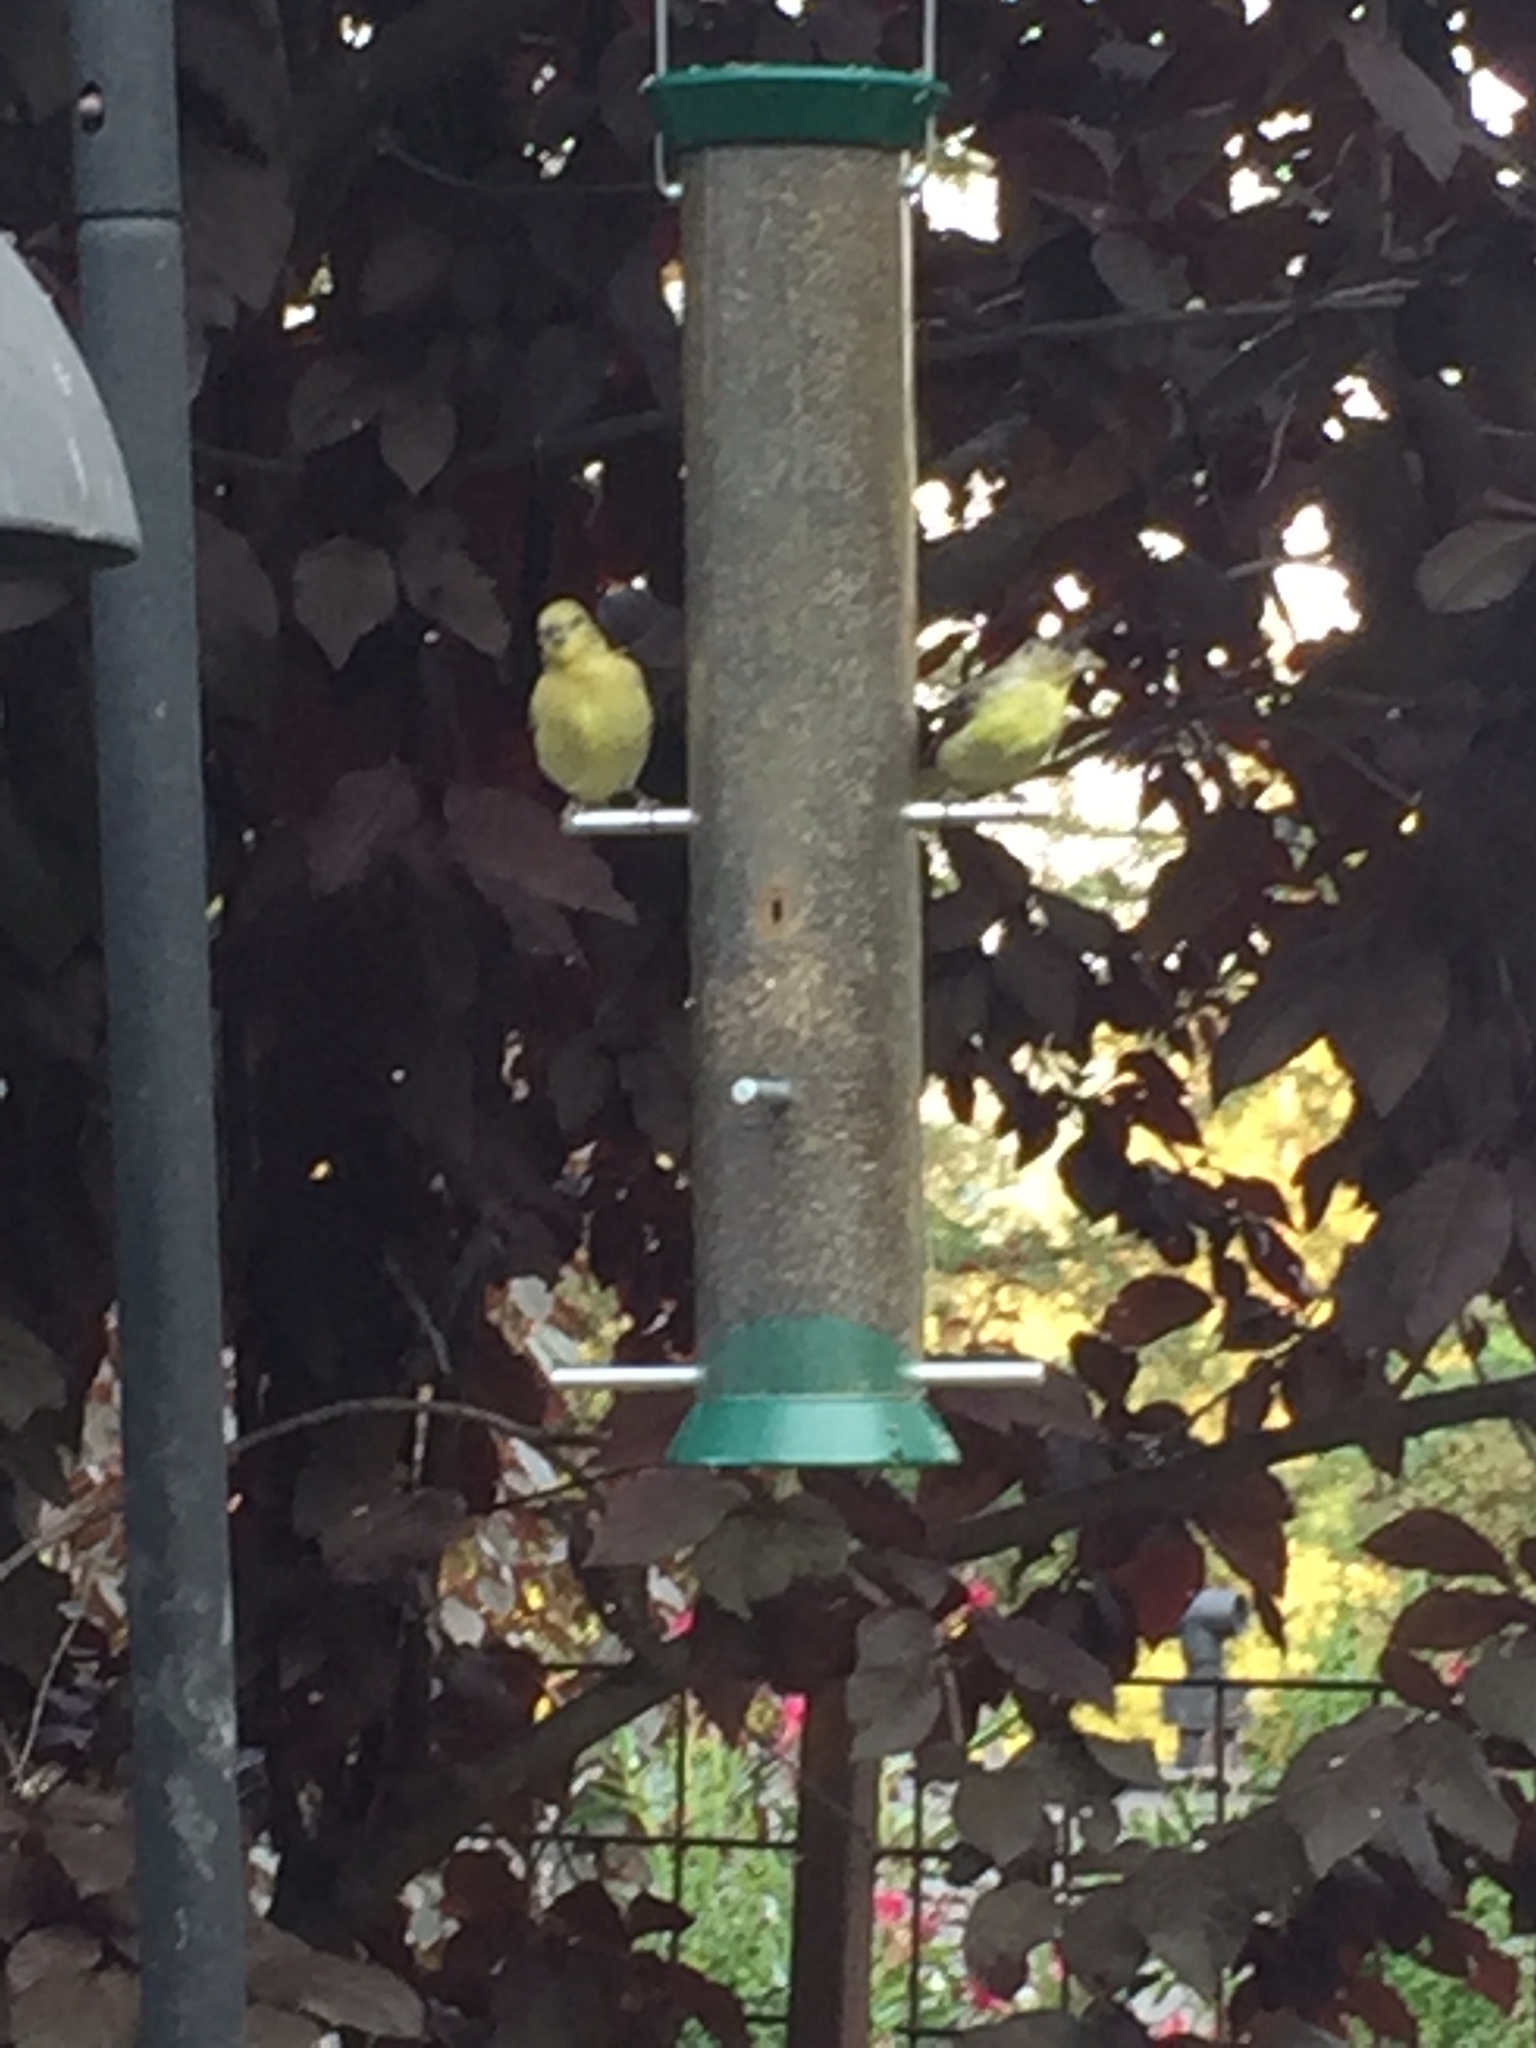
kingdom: Animalia
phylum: Chordata
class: Aves
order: Passeriformes
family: Fringillidae
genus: Spinus
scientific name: Spinus psaltria
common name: Lesser goldfinch
